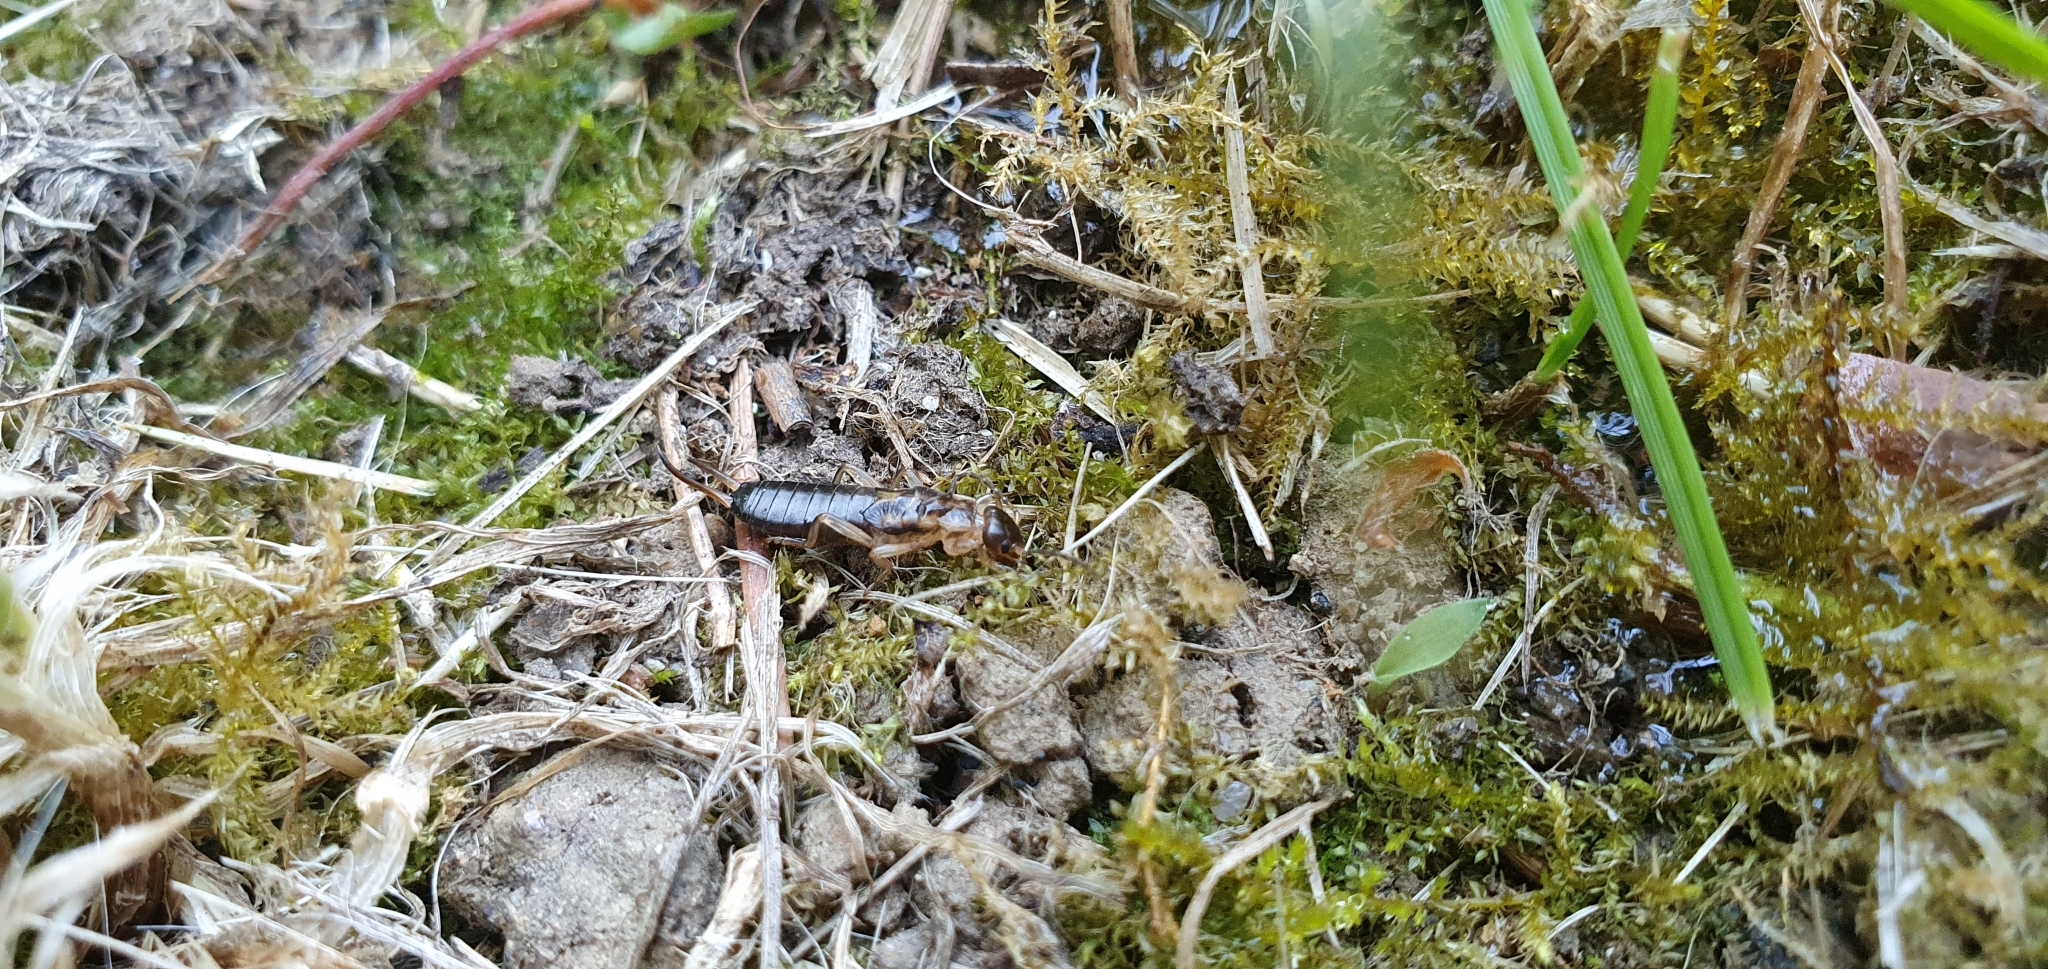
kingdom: Animalia
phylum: Arthropoda
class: Insecta
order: Dermaptera
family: Forficulidae
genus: Forficula
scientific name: Forficula
